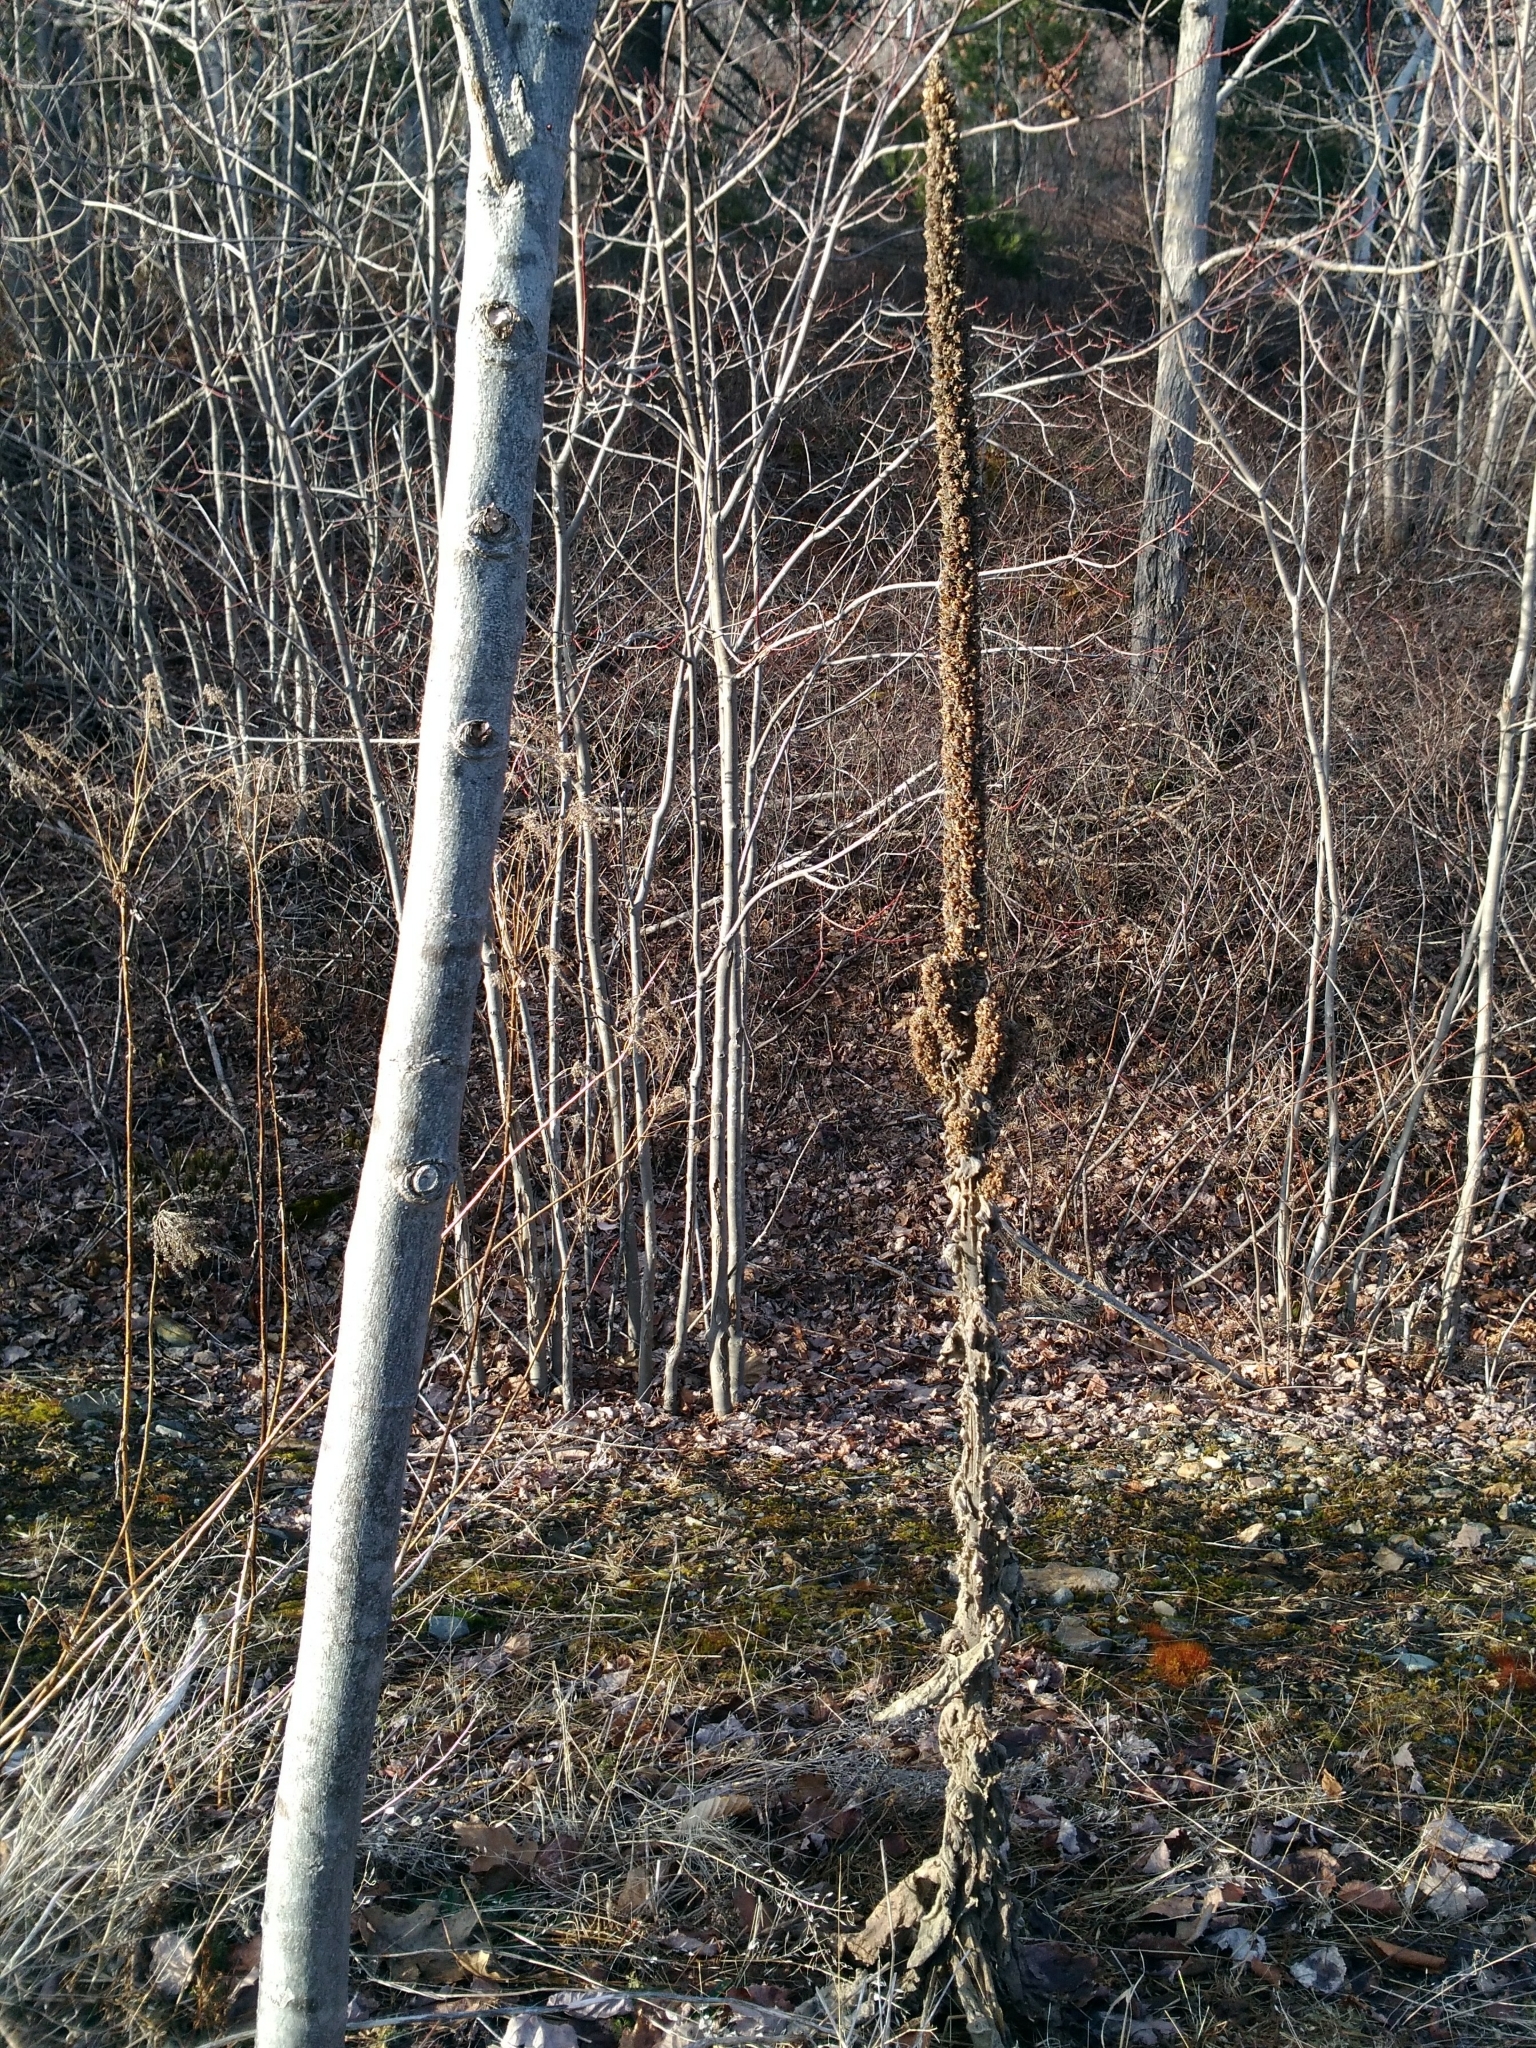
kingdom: Plantae
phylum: Tracheophyta
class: Magnoliopsida
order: Lamiales
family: Scrophulariaceae
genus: Verbascum
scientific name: Verbascum thapsus
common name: Common mullein
